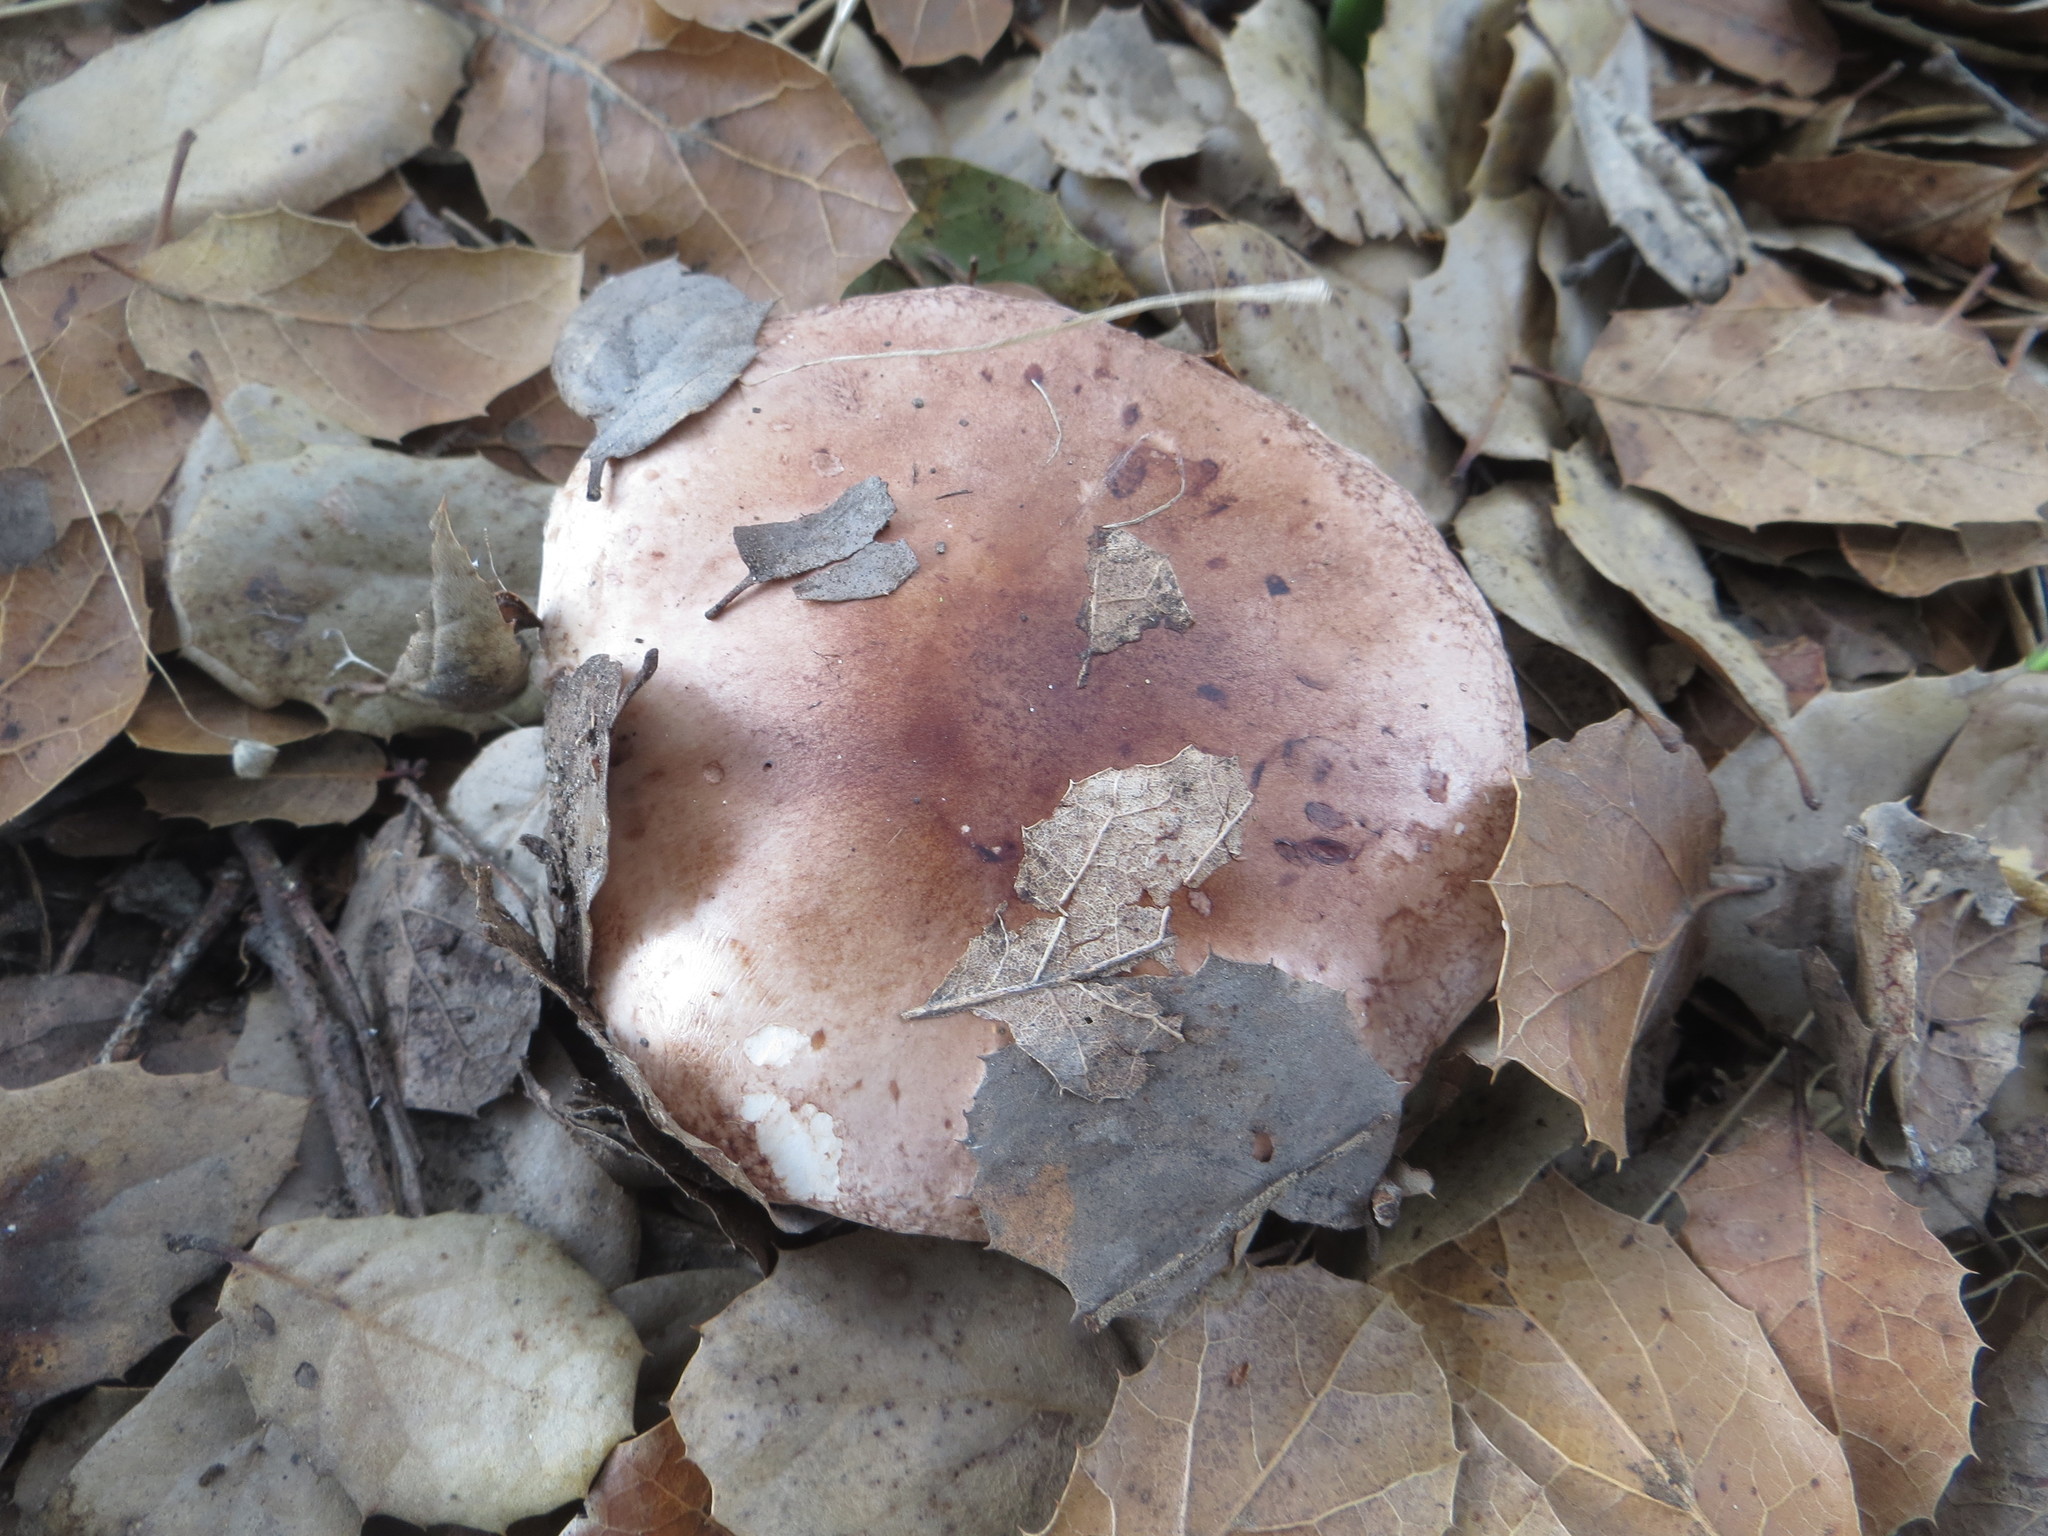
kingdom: Fungi
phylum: Basidiomycota
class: Agaricomycetes
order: Agaricales
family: Tricholomataceae
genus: Melanoleuca
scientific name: Melanoleuca dryophila
